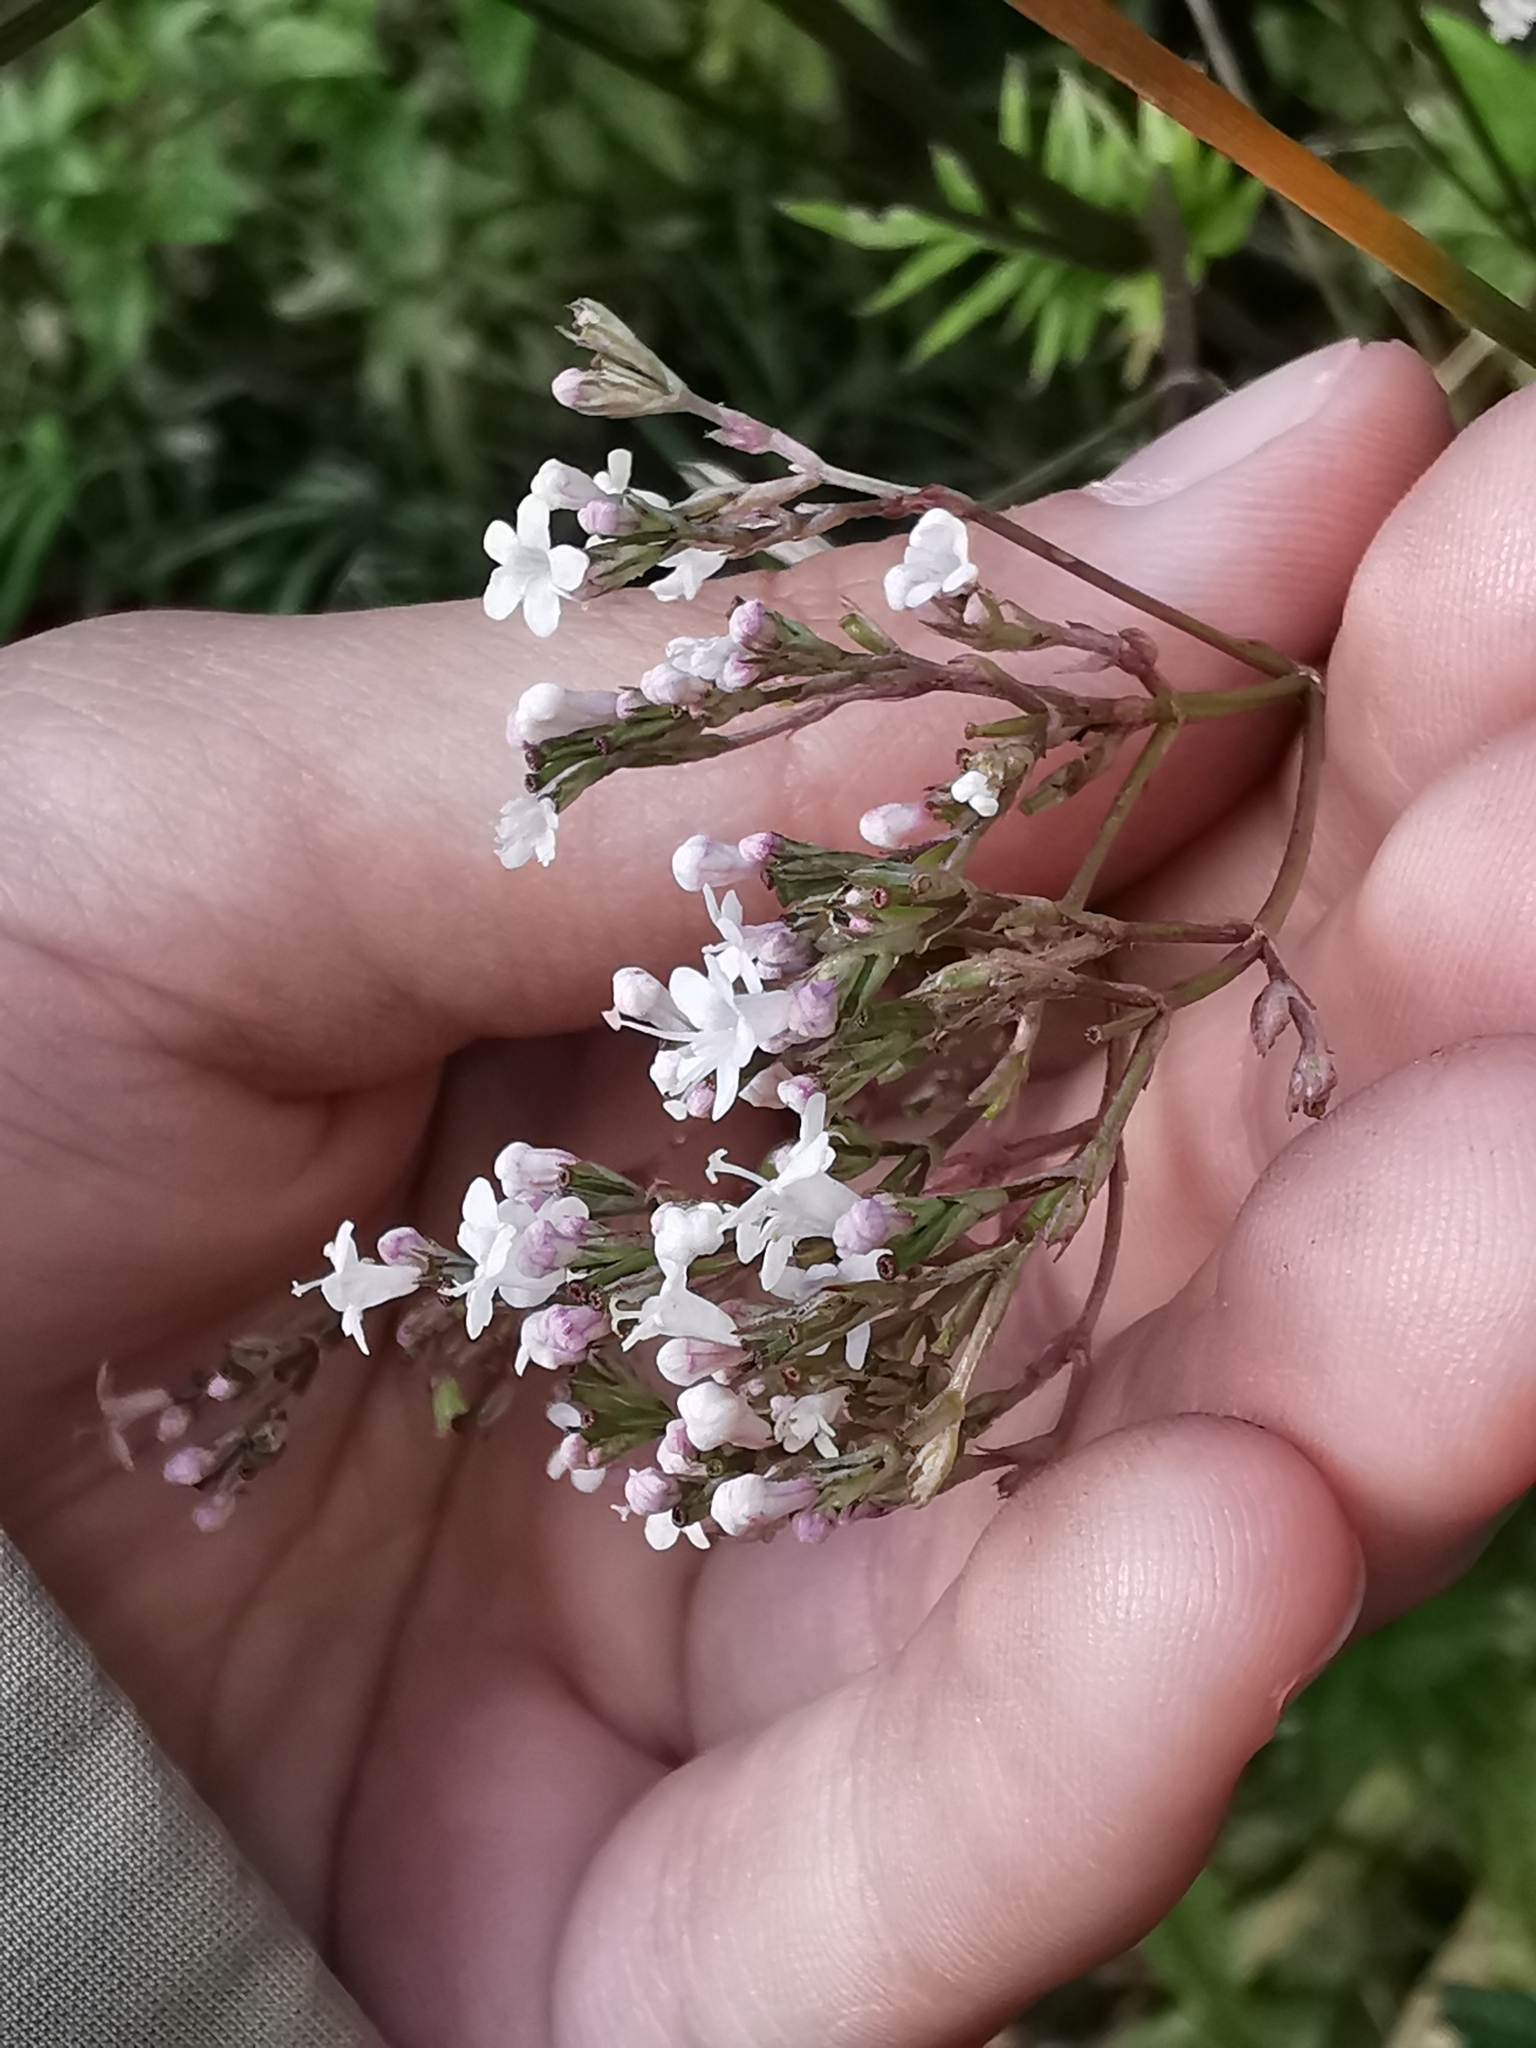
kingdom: Plantae
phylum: Tracheophyta
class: Magnoliopsida
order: Dipsacales
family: Caprifoliaceae
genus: Valeriana
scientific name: Valeriana officinalis
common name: Common valerian
